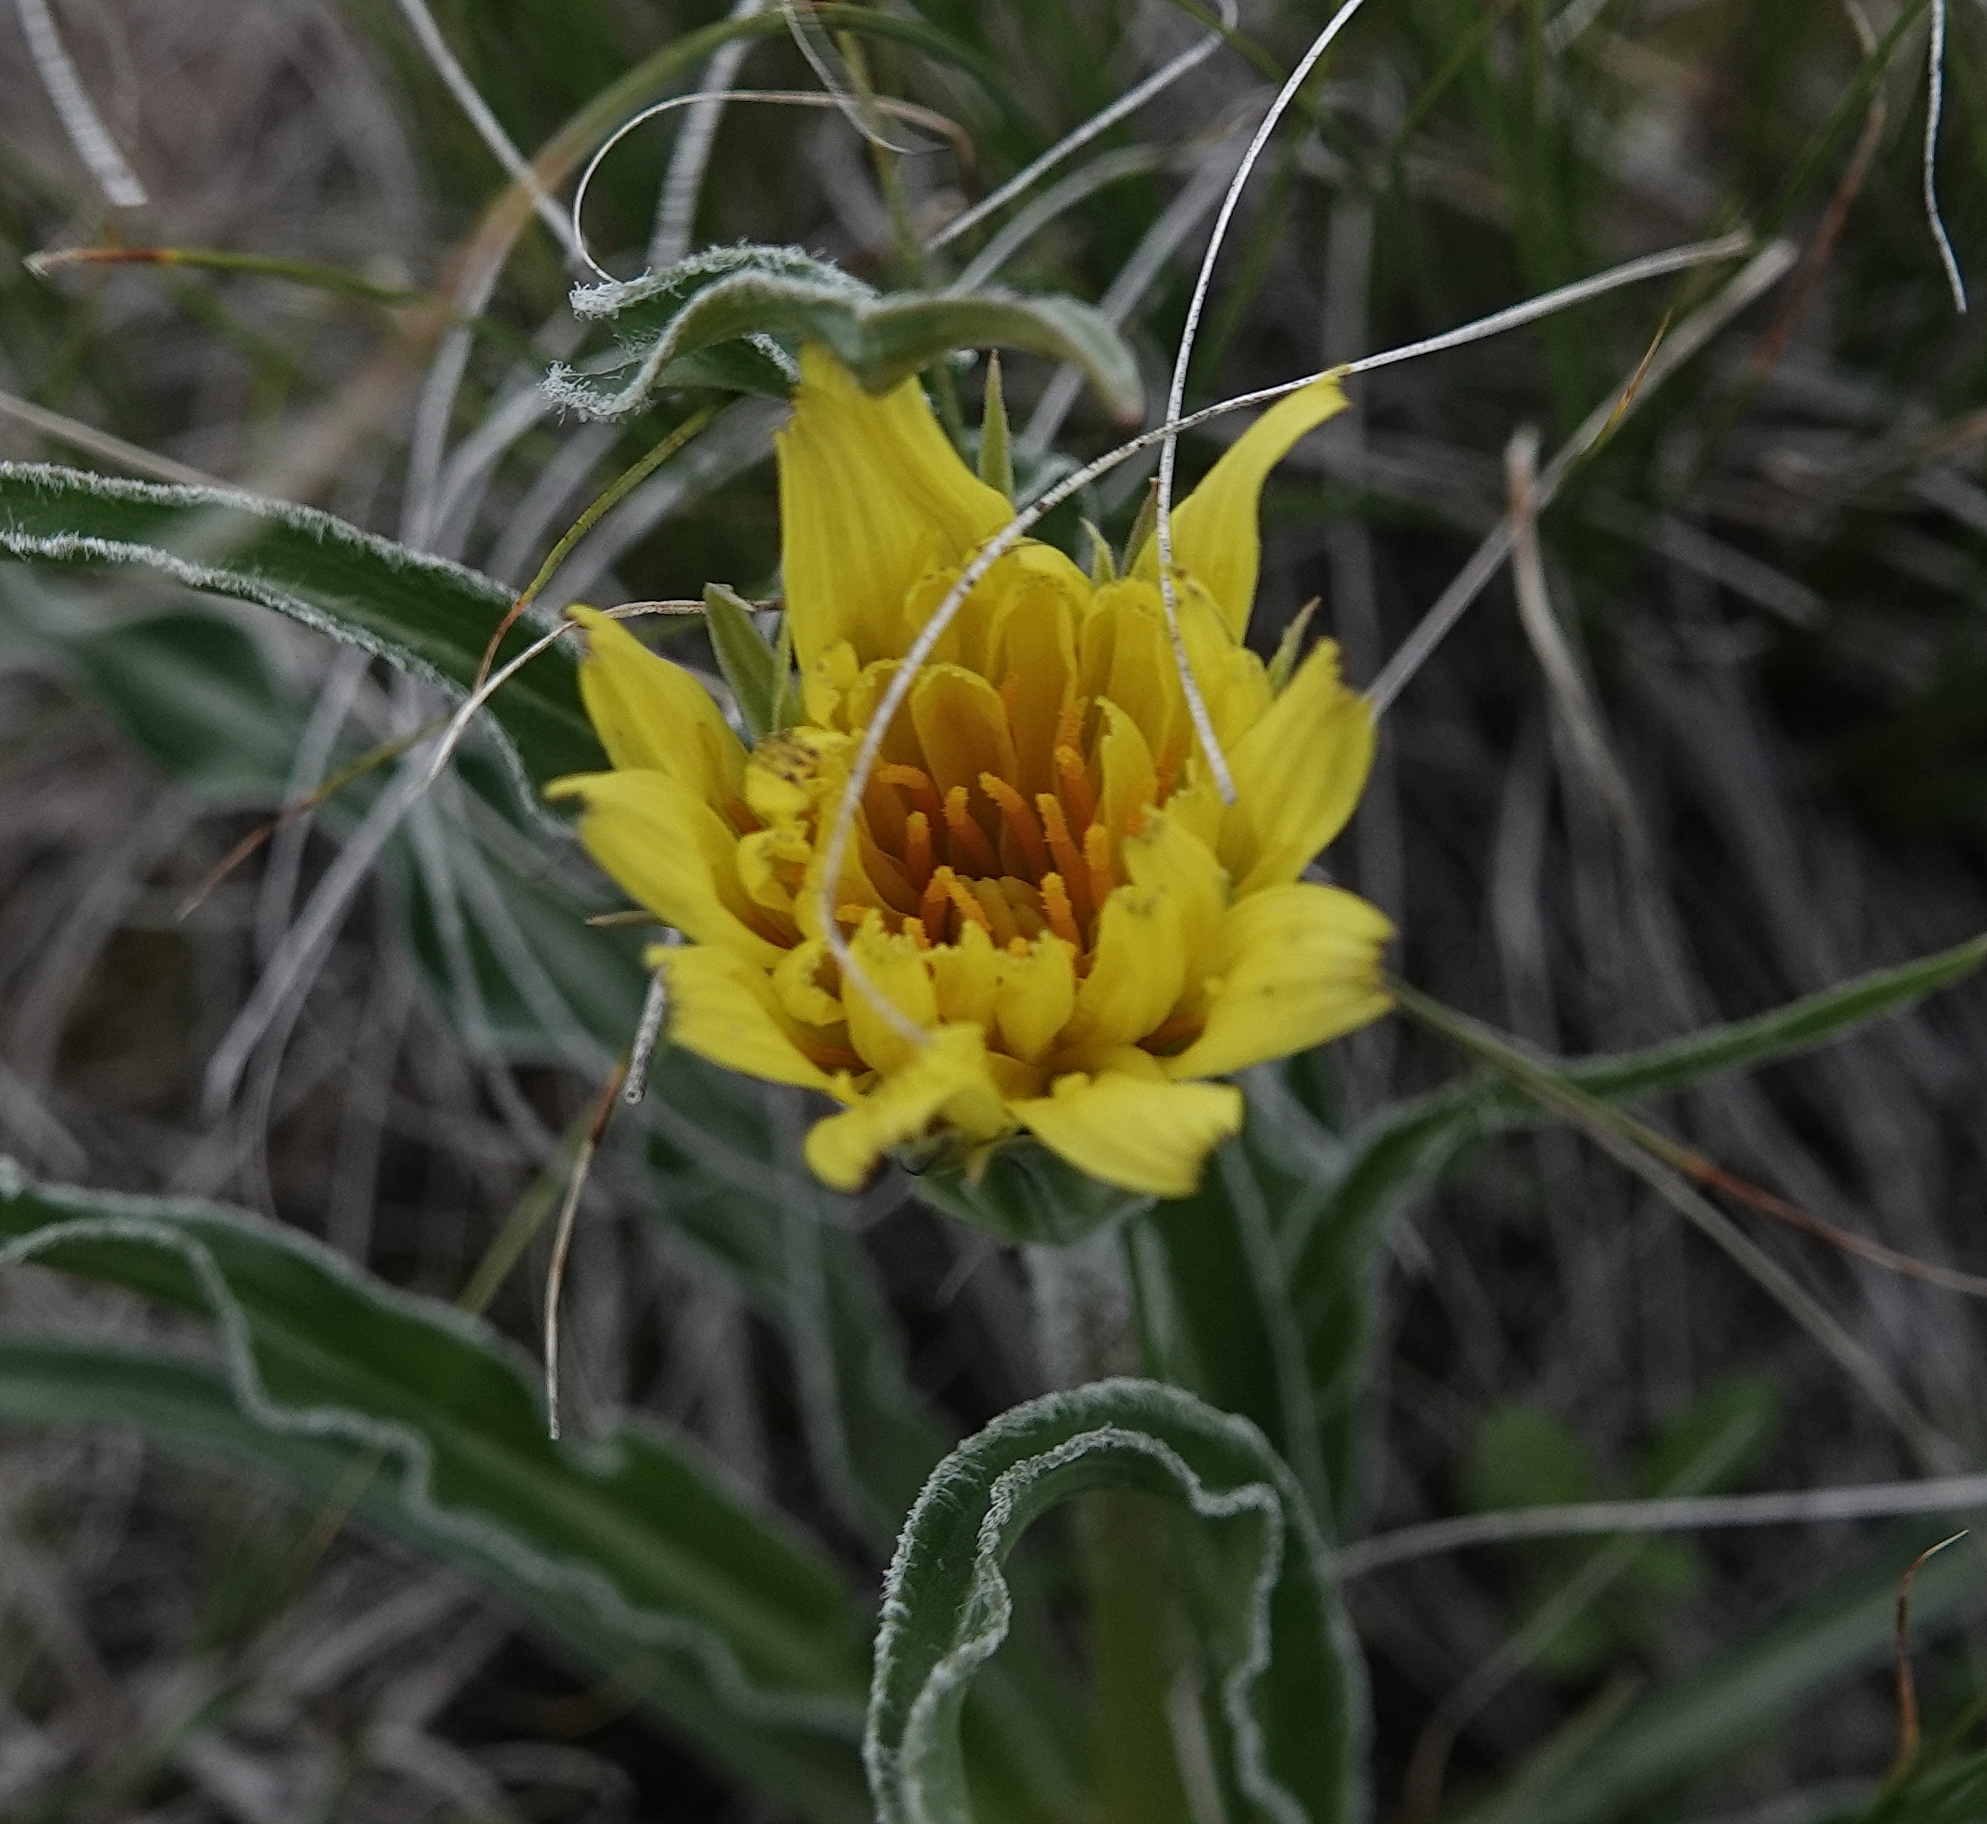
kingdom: Plantae
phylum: Tracheophyta
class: Magnoliopsida
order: Asterales
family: Asteraceae
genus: Microseris
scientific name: Microseris cuspidata
